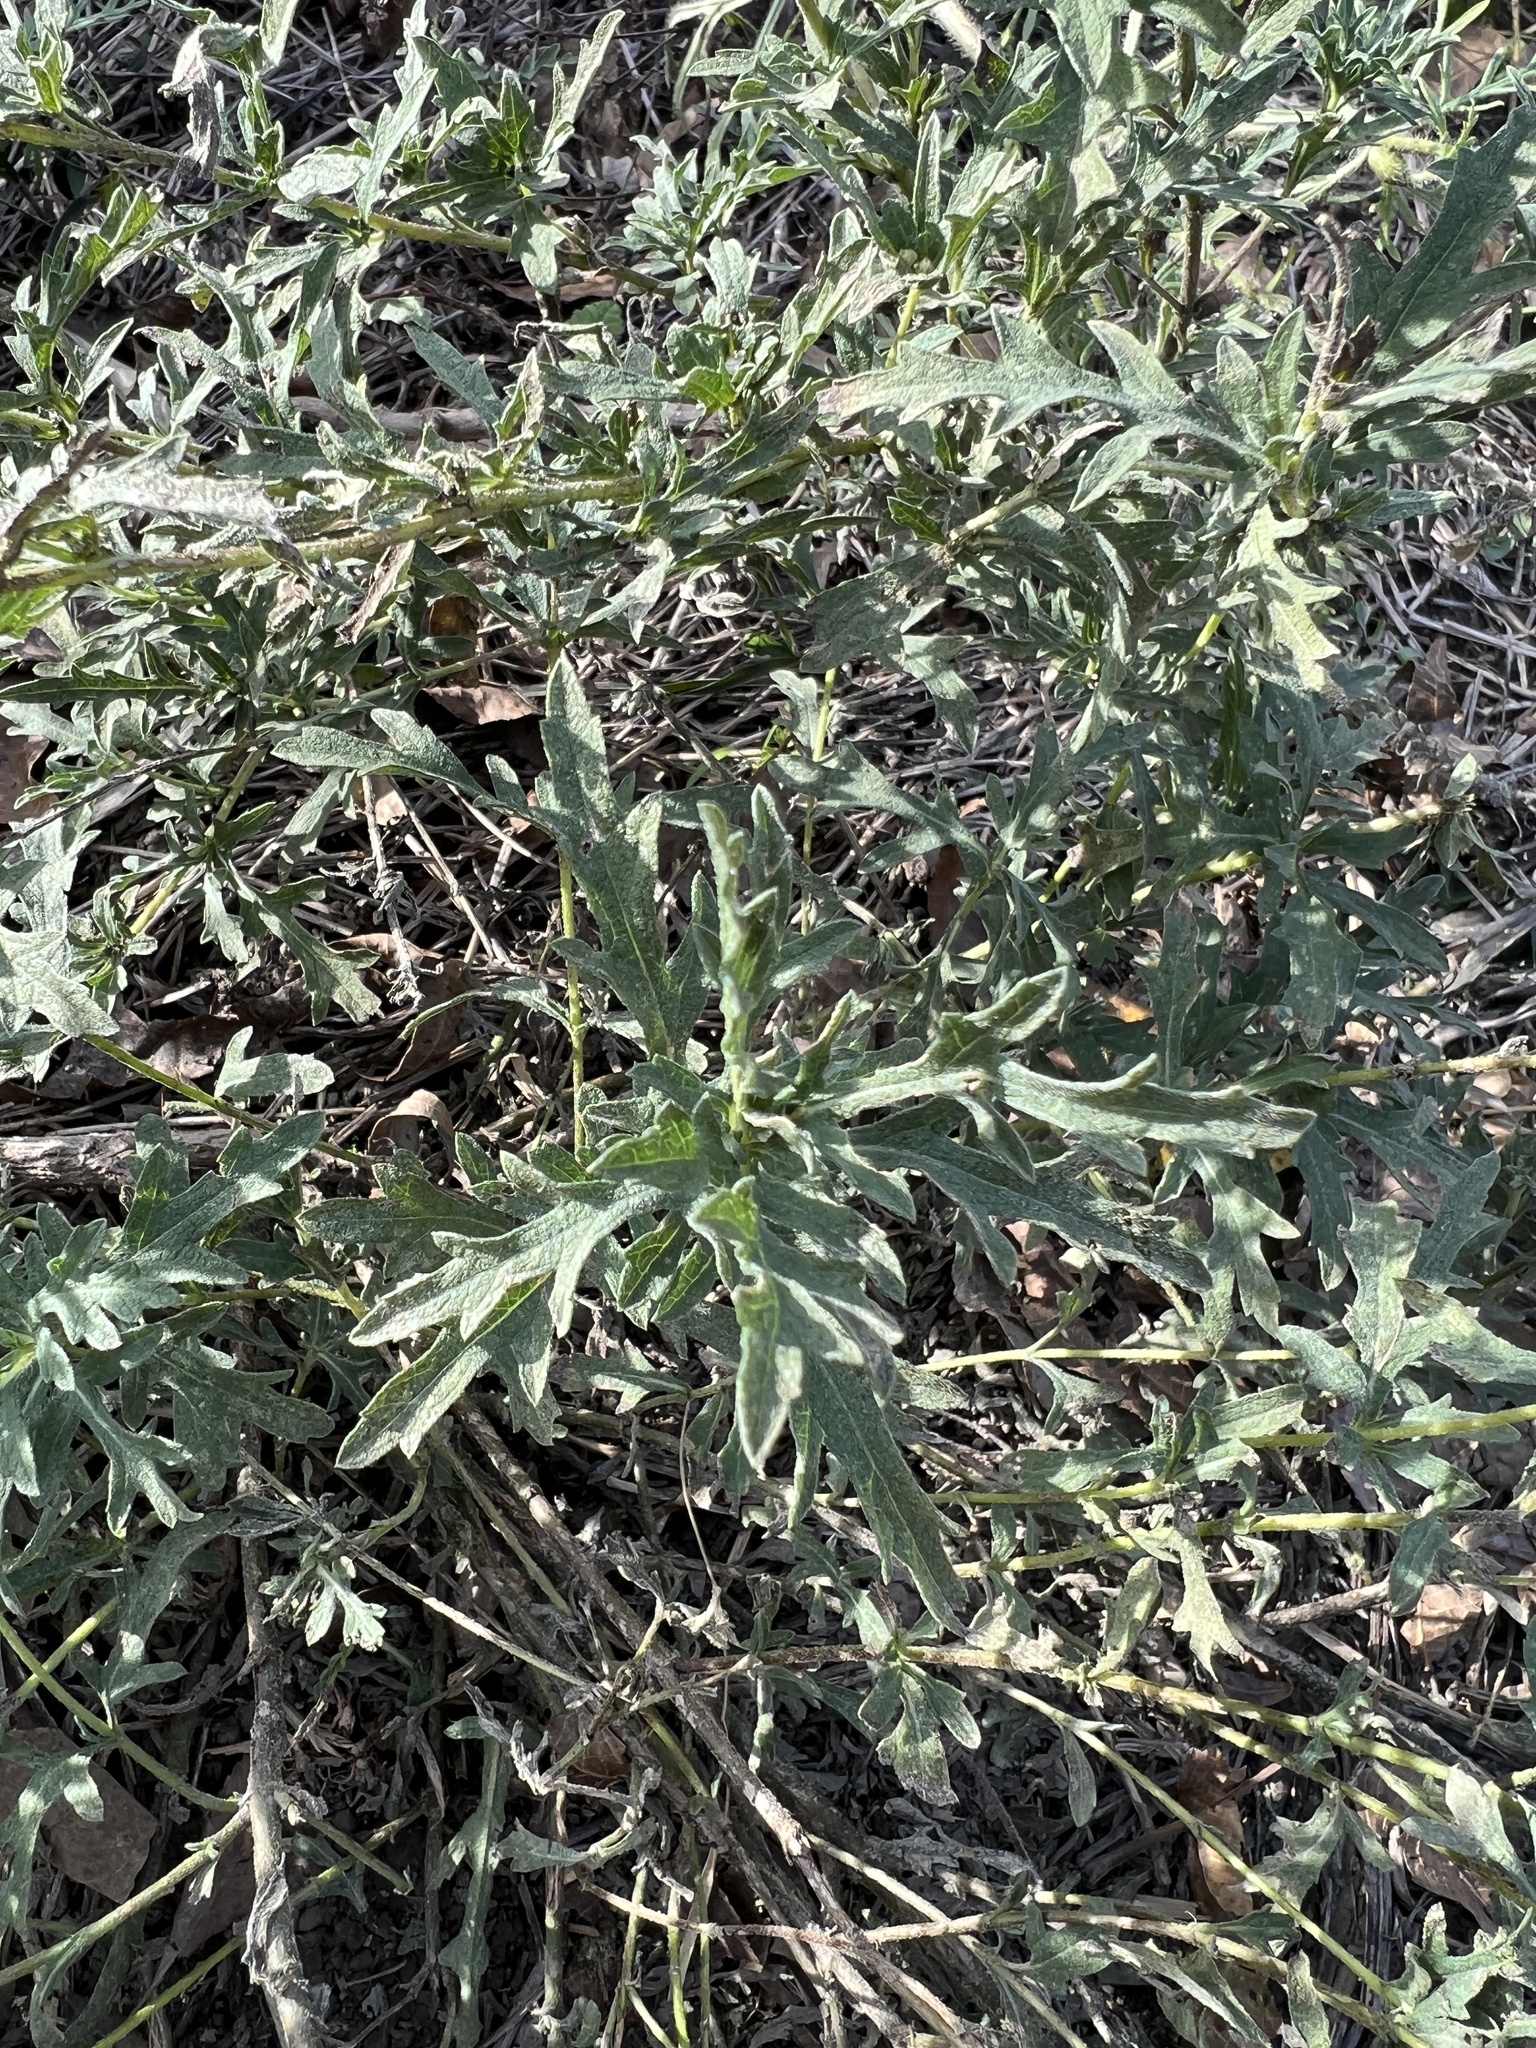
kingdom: Plantae
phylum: Tracheophyta
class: Magnoliopsida
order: Asterales
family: Asteraceae
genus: Ambrosia
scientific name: Ambrosia psilostachya
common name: Perennial ragweed
